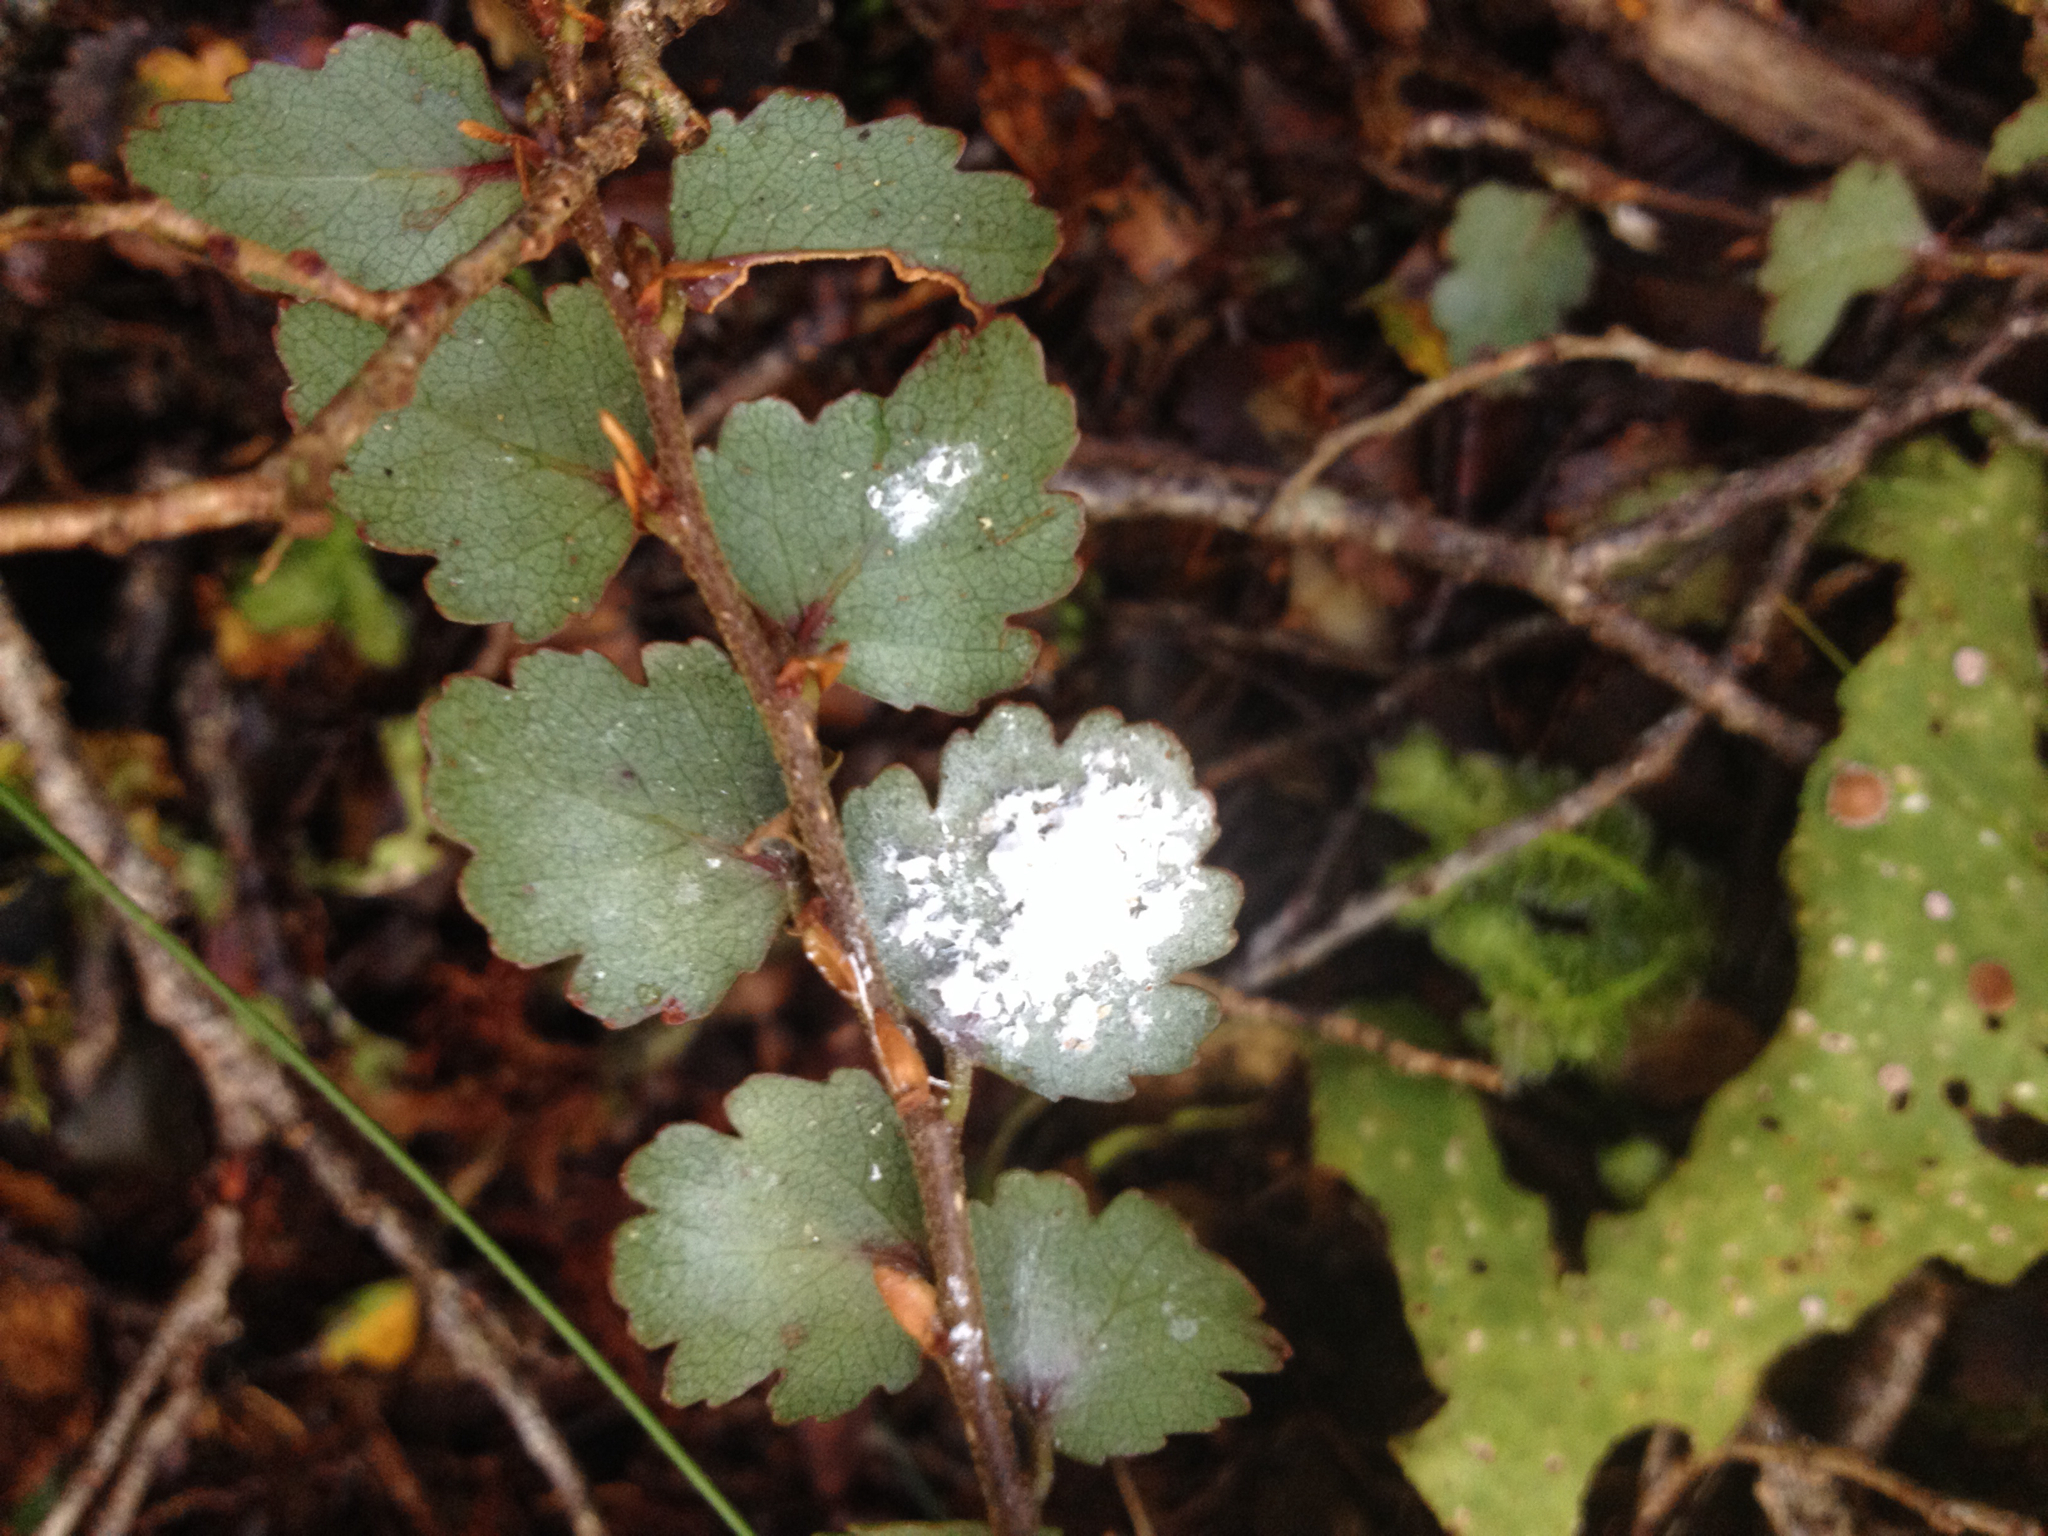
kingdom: Plantae
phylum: Tracheophyta
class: Magnoliopsida
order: Fagales
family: Nothofagaceae
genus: Nothofagus
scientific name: Nothofagus menziesii
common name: Silver beech
